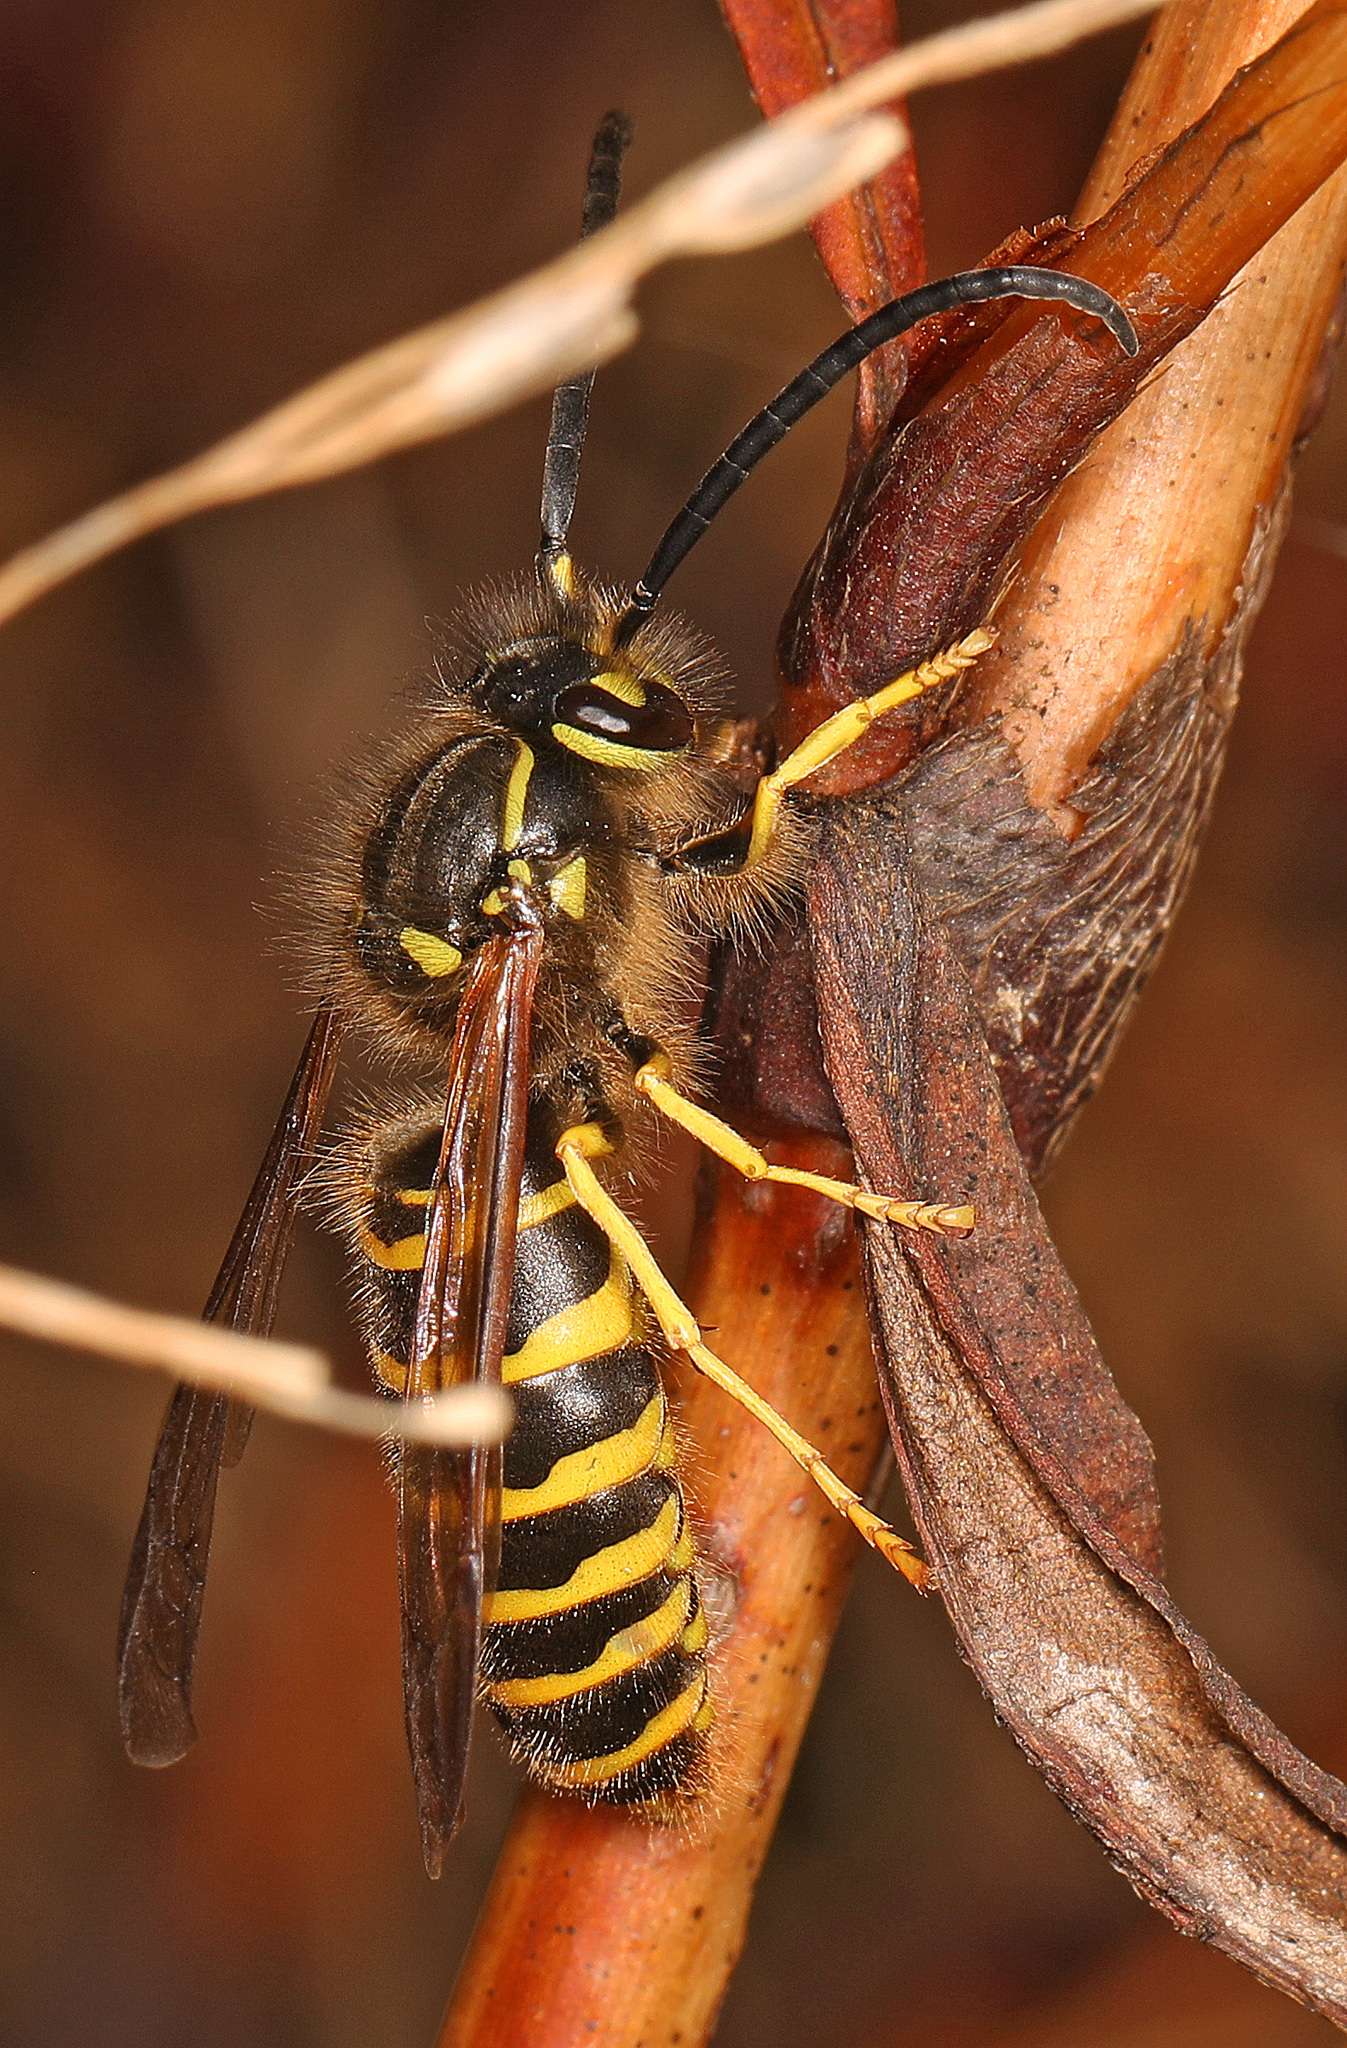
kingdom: Animalia
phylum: Arthropoda
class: Insecta
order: Hymenoptera
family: Vespidae
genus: Vespula
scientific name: Vespula maculifrons
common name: Eastern yellowjacket
